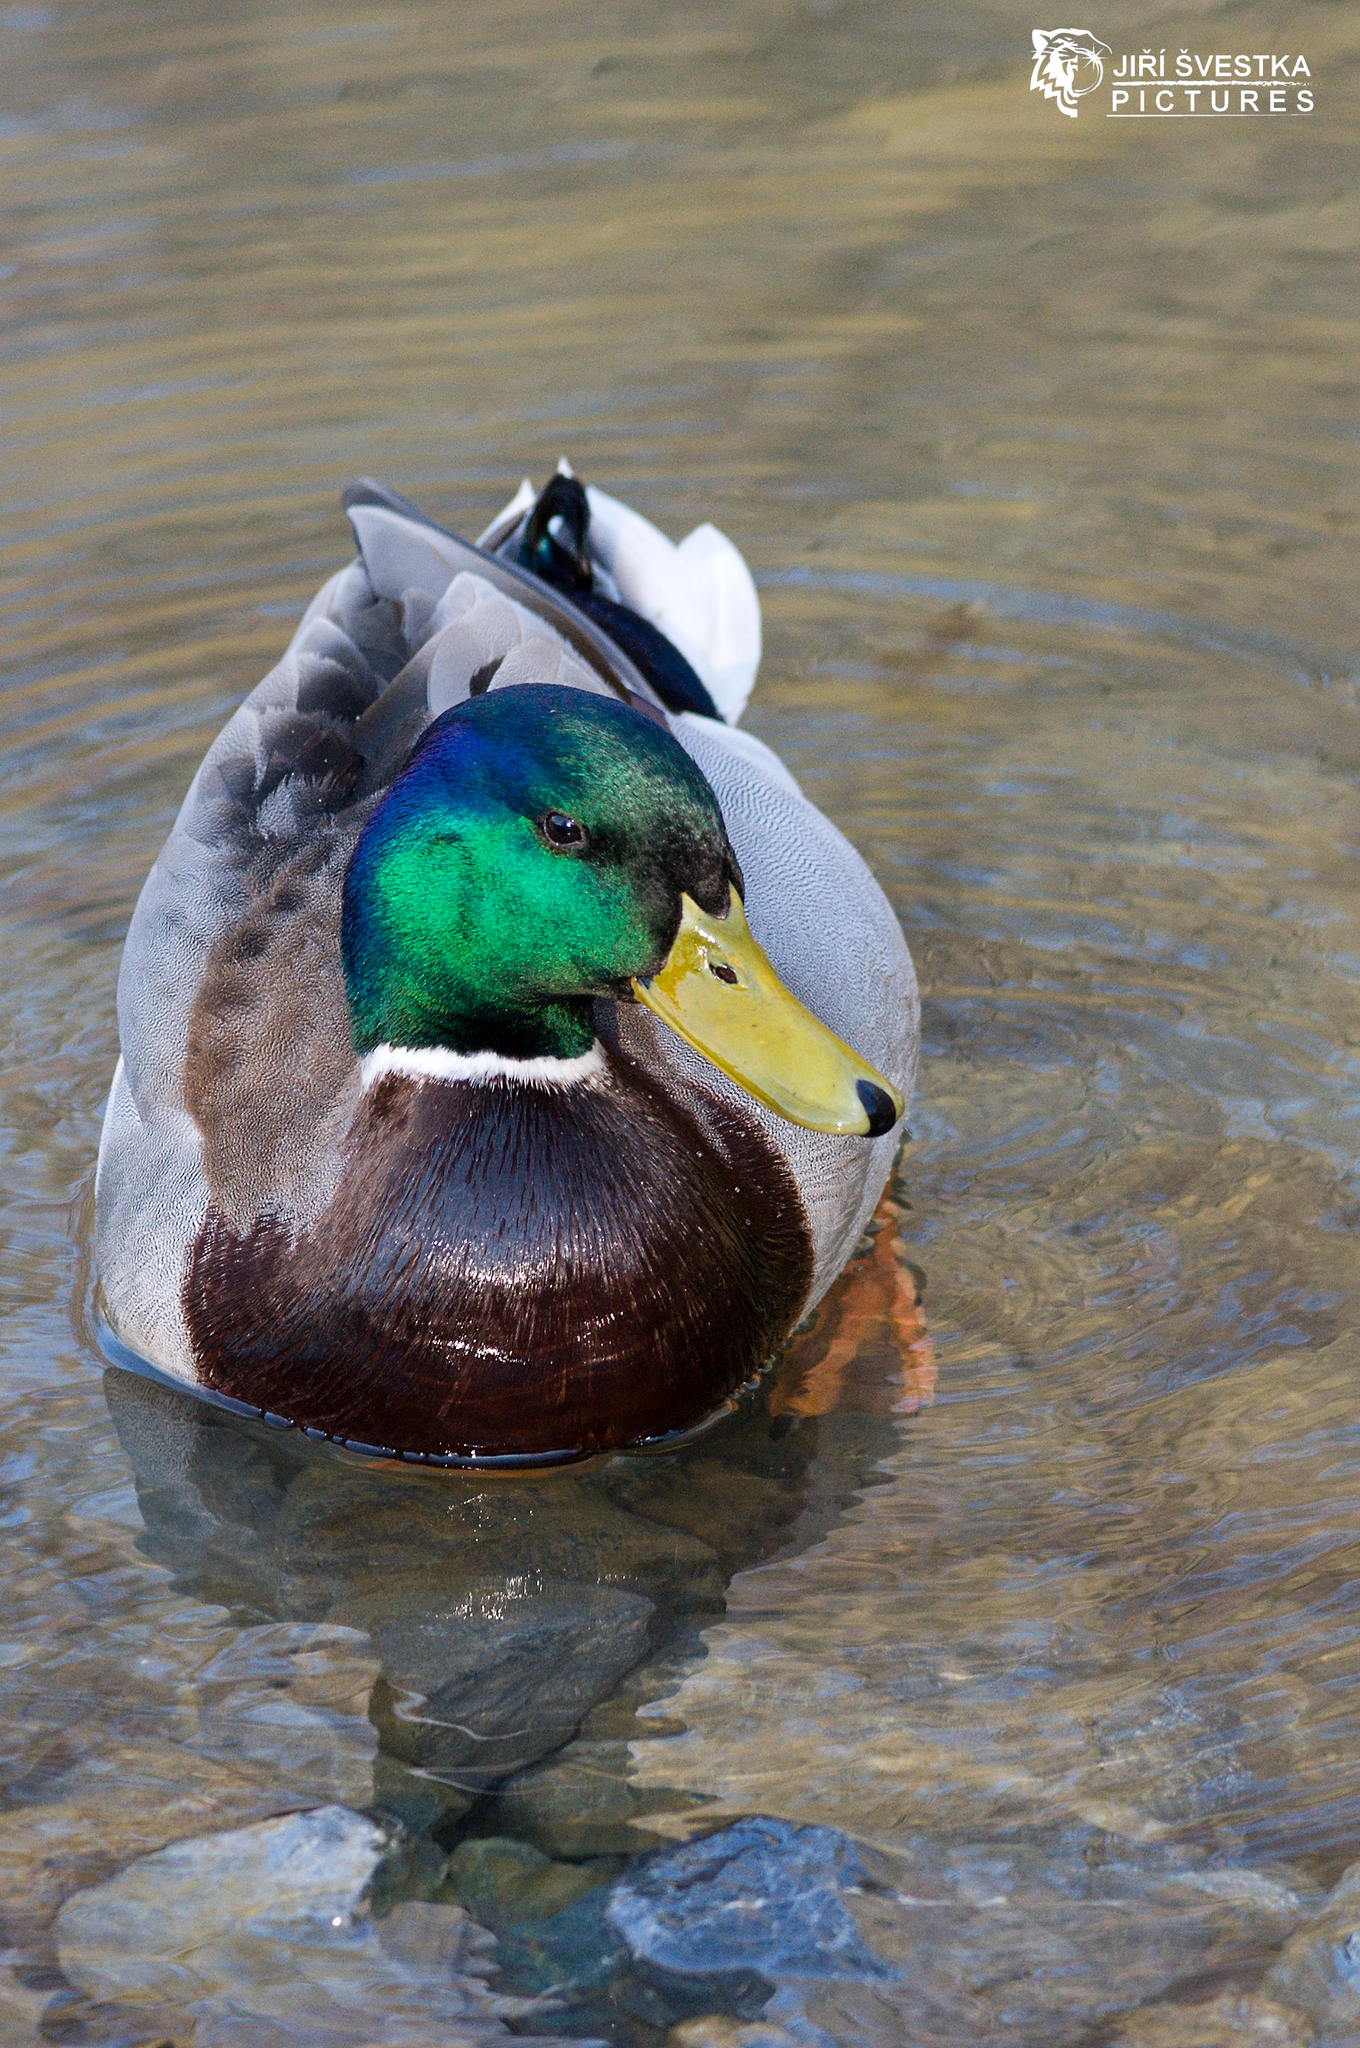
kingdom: Animalia
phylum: Chordata
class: Aves
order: Anseriformes
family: Anatidae
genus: Anas
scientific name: Anas platyrhynchos
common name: Mallard
